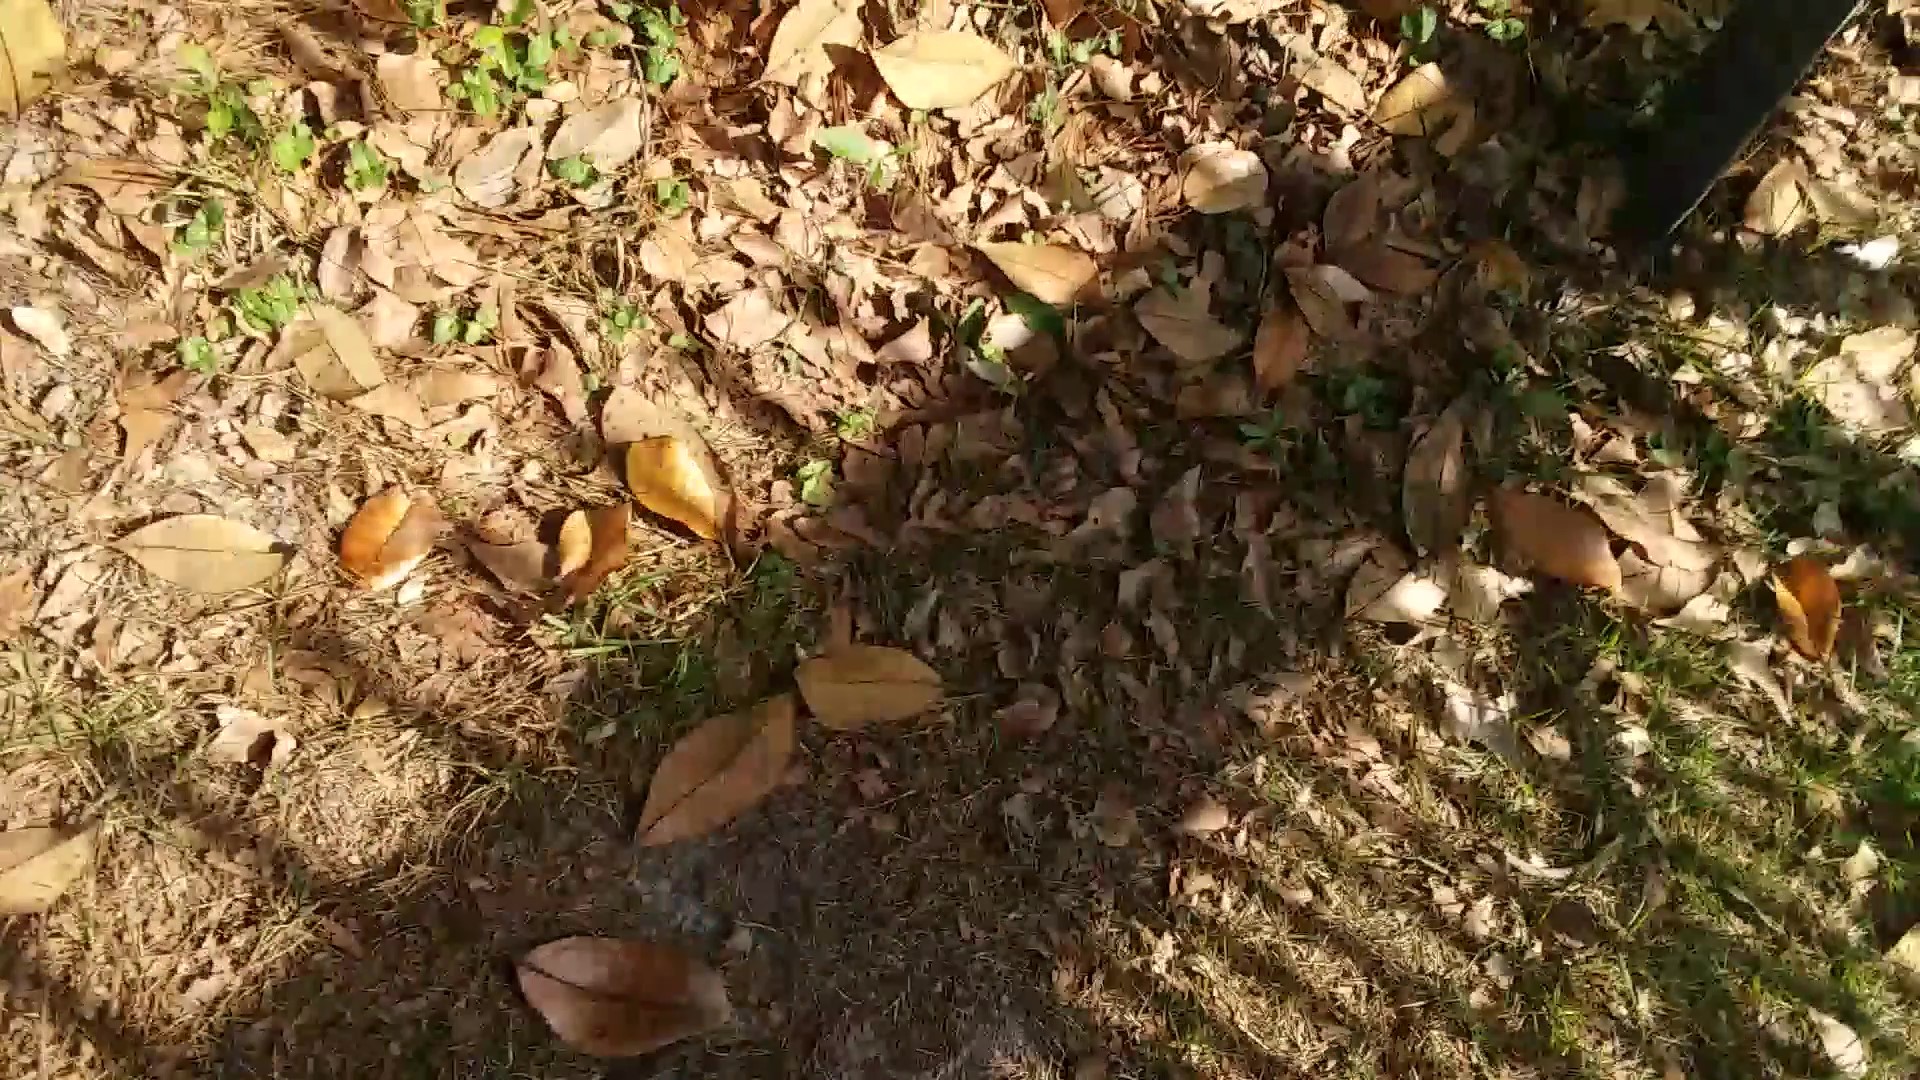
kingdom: Plantae
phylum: Tracheophyta
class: Magnoliopsida
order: Magnoliales
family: Magnoliaceae
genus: Magnolia
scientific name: Magnolia grandiflora
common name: Southern magnolia
